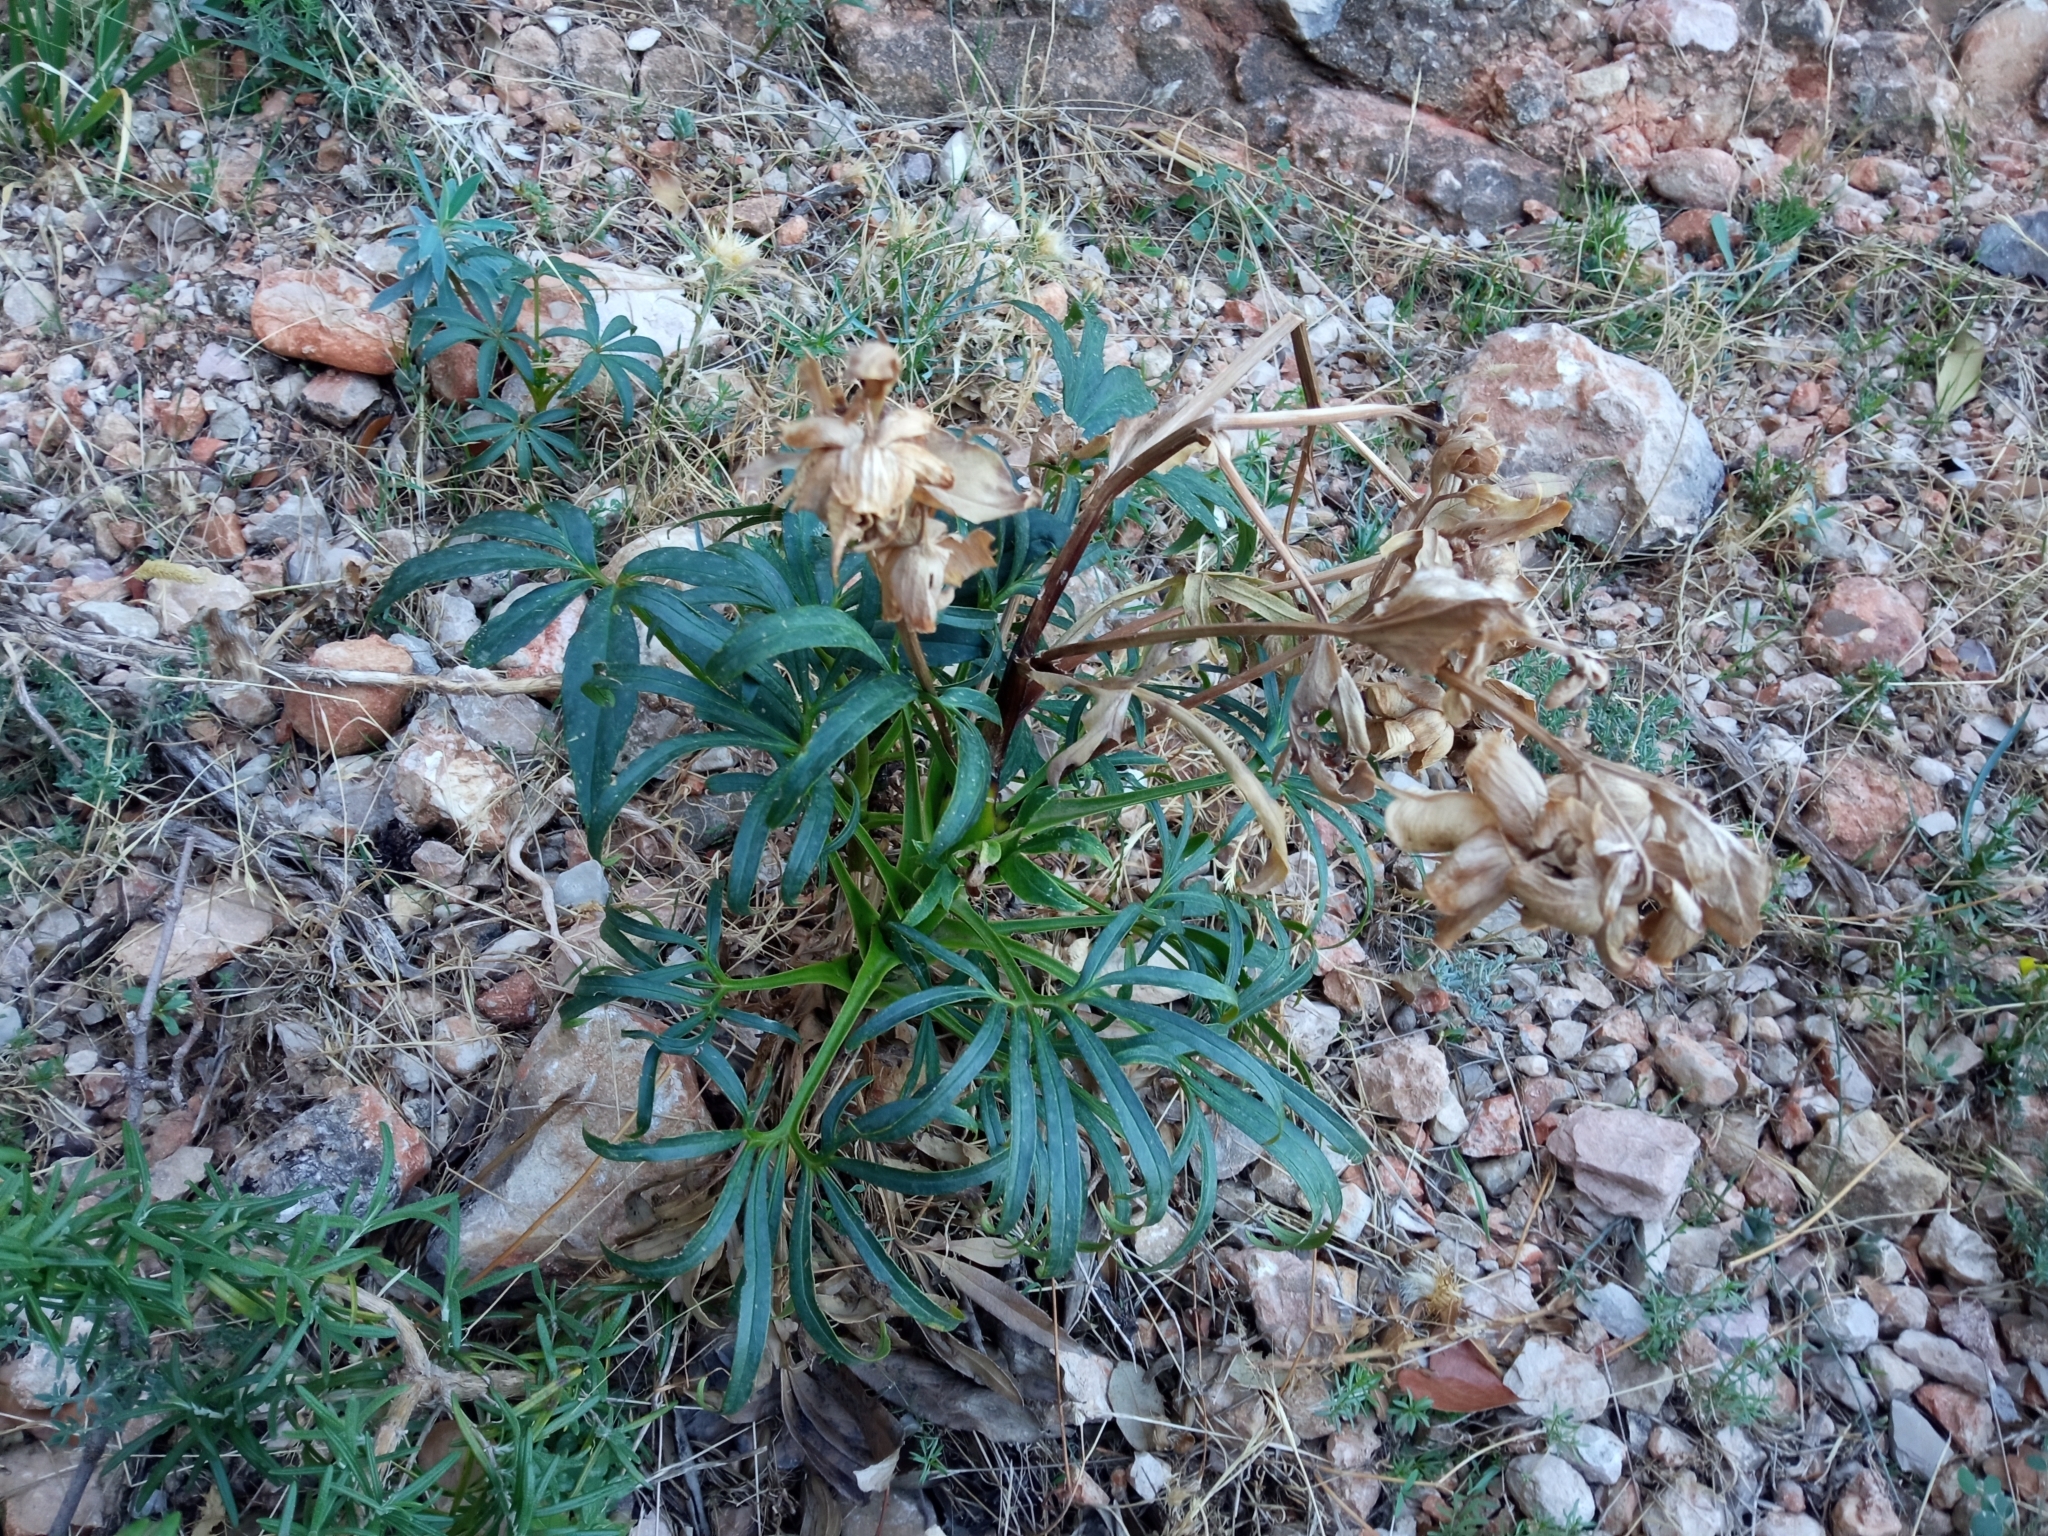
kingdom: Plantae
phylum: Tracheophyta
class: Magnoliopsida
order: Ranunculales
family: Ranunculaceae
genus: Helleborus
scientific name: Helleborus foetidus
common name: Stinking hellebore
